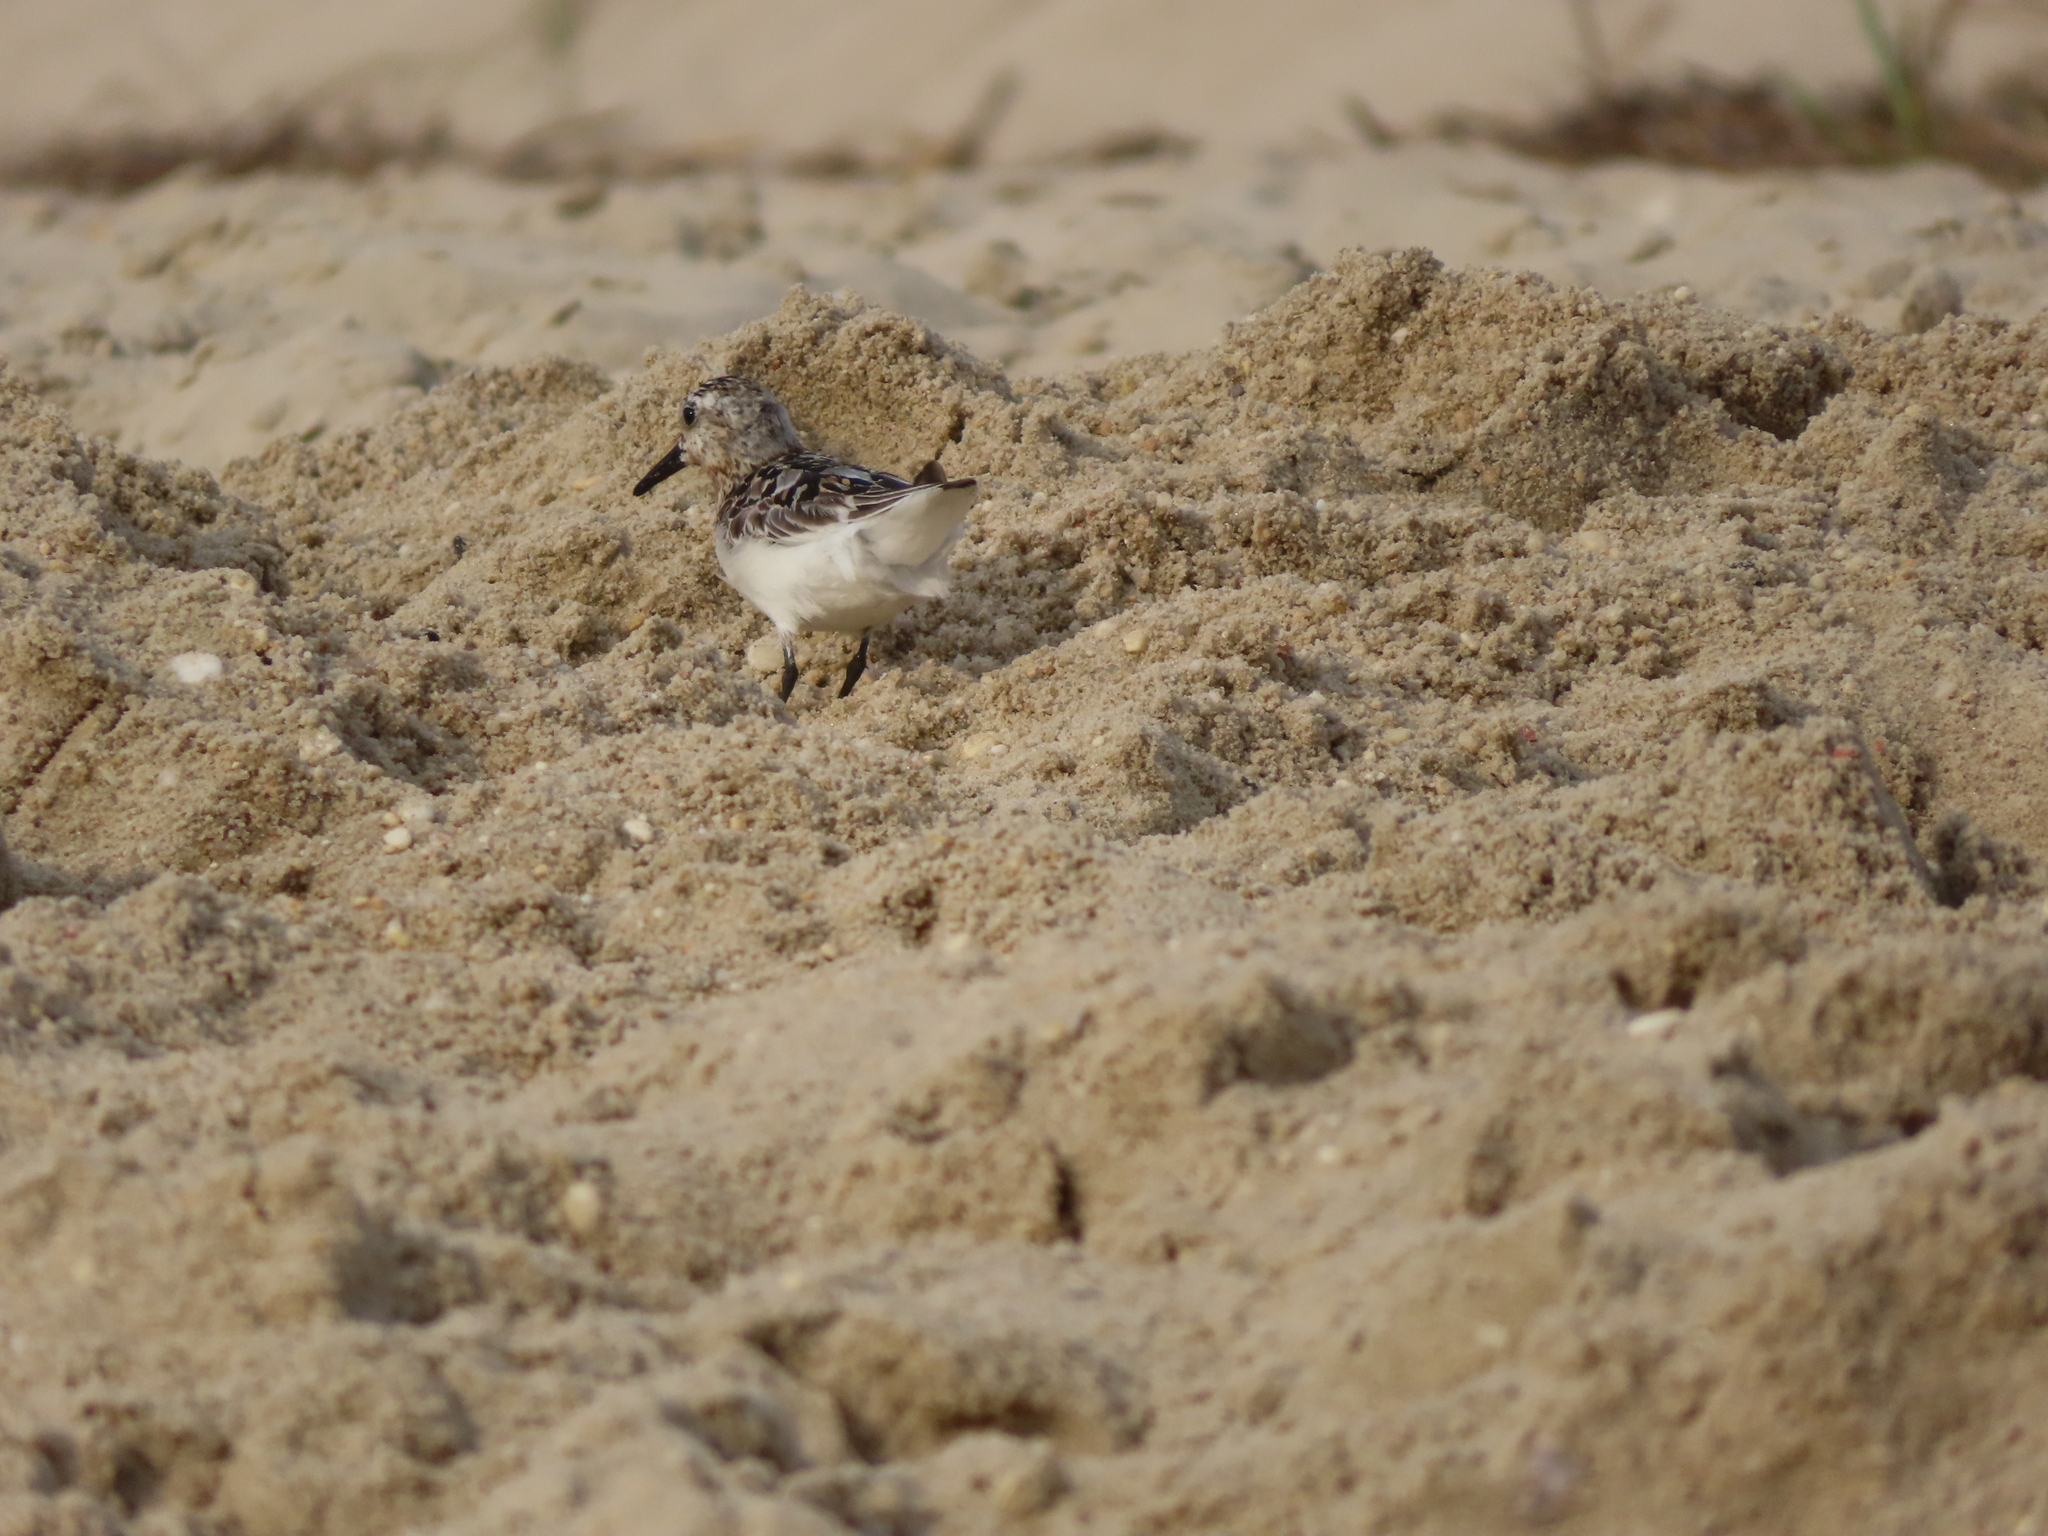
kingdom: Animalia
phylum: Chordata
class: Aves
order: Charadriiformes
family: Scolopacidae
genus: Calidris
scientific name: Calidris alba
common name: Sanderling
